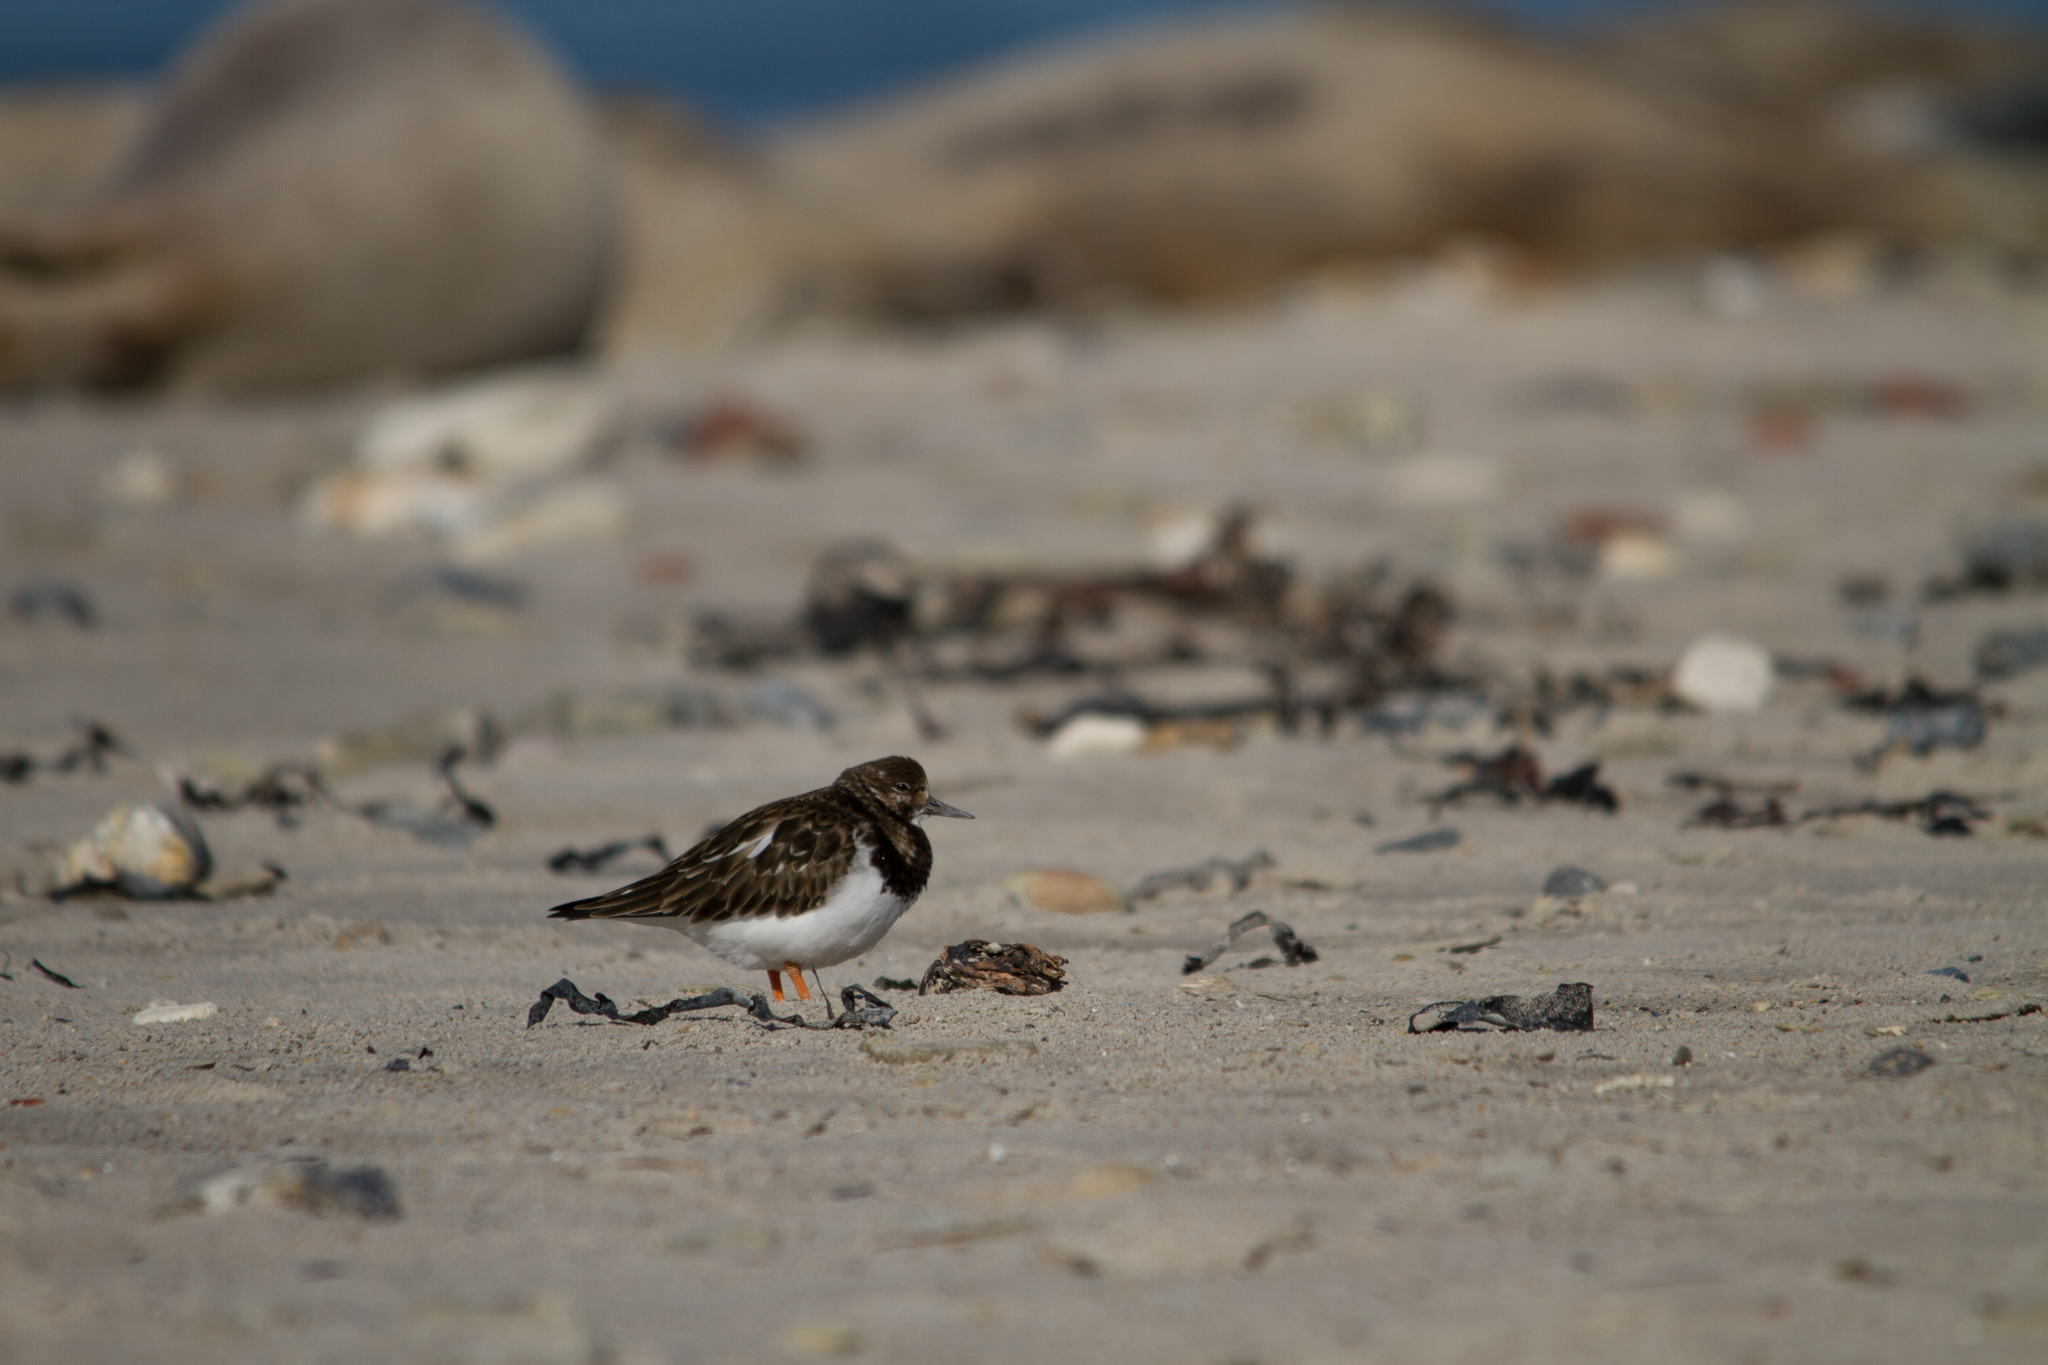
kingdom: Animalia
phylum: Chordata
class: Aves
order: Charadriiformes
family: Scolopacidae
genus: Arenaria
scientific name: Arenaria interpres
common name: Ruddy turnstone
